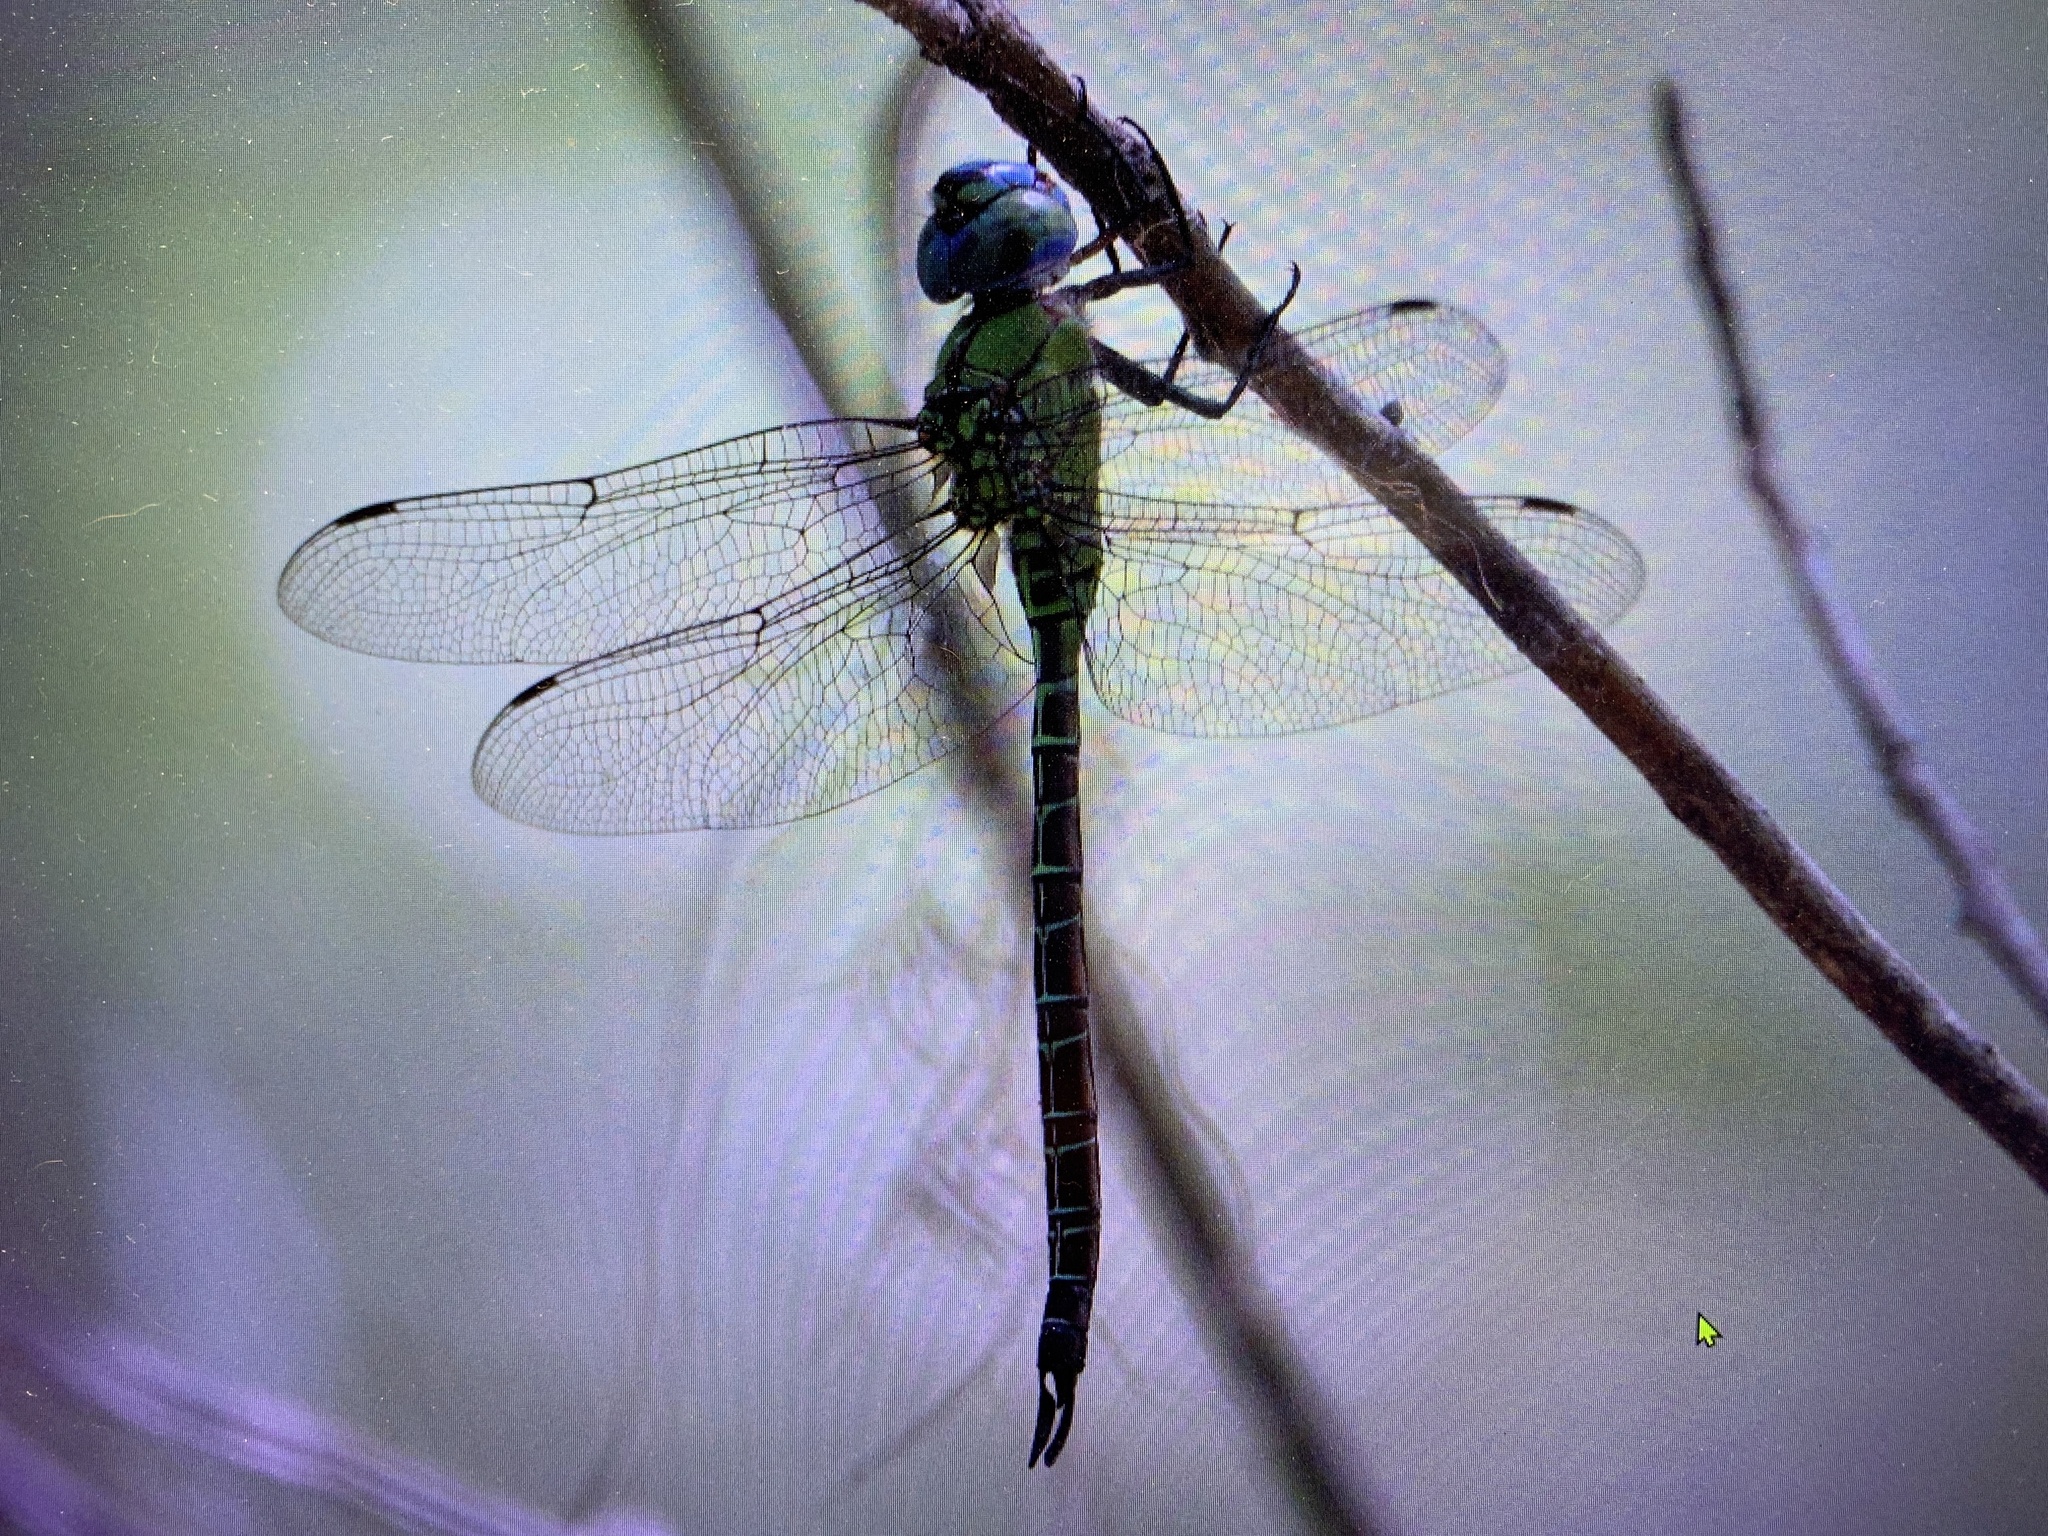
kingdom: Animalia
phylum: Arthropoda
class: Insecta
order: Odonata
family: Aeshnidae
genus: Coryphaeschna
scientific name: Coryphaeschna adnexa
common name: Blue-faced darner
